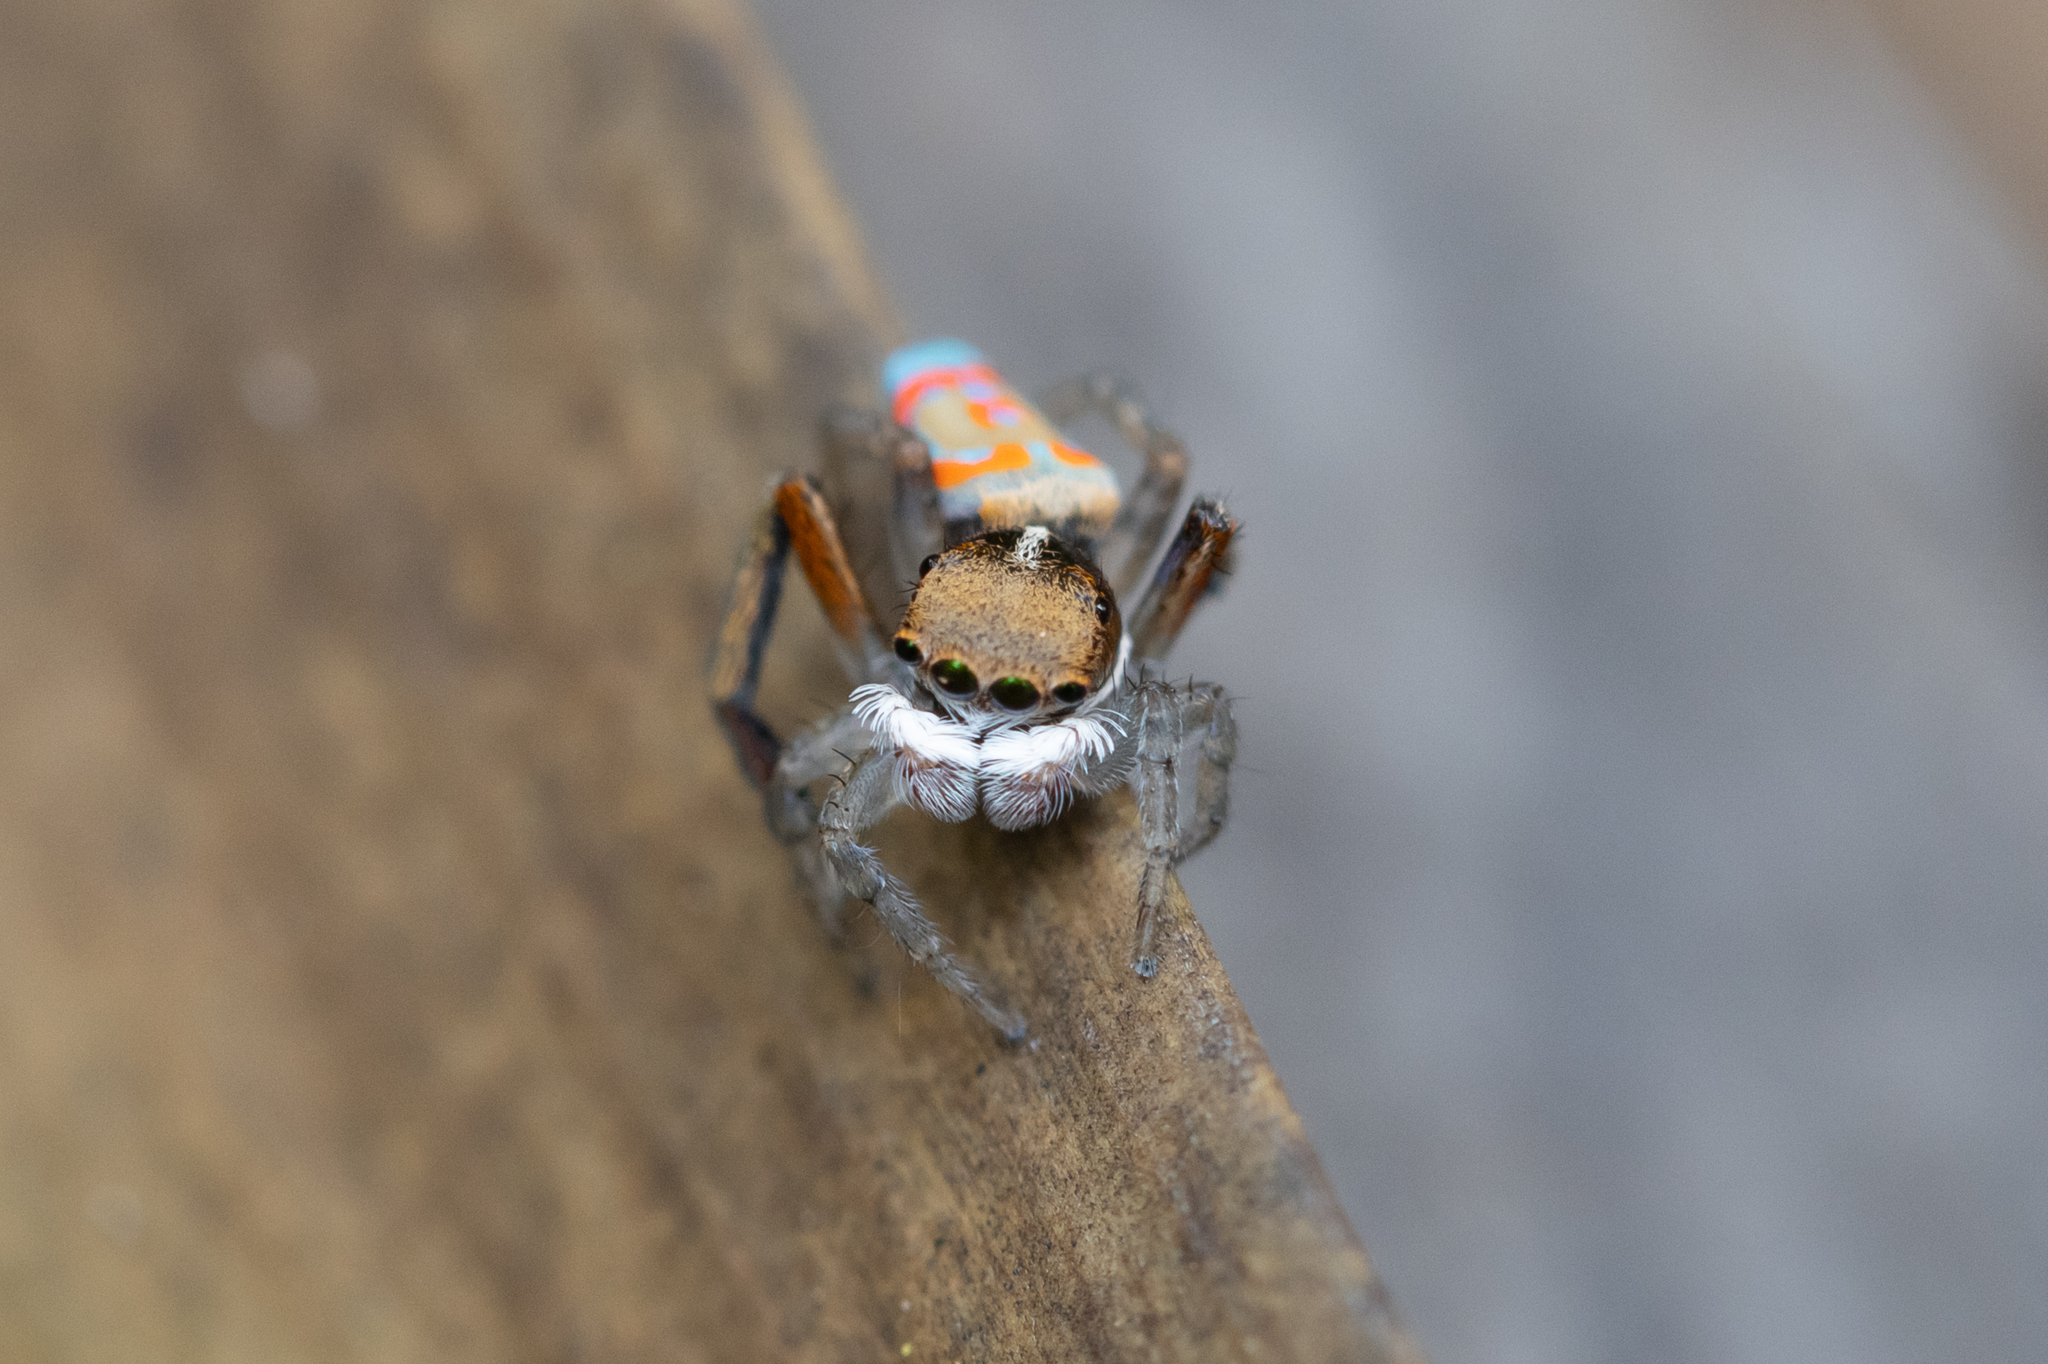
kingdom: Animalia
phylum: Arthropoda
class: Arachnida
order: Araneae
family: Salticidae
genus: Maratus
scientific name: Maratus pavonis
